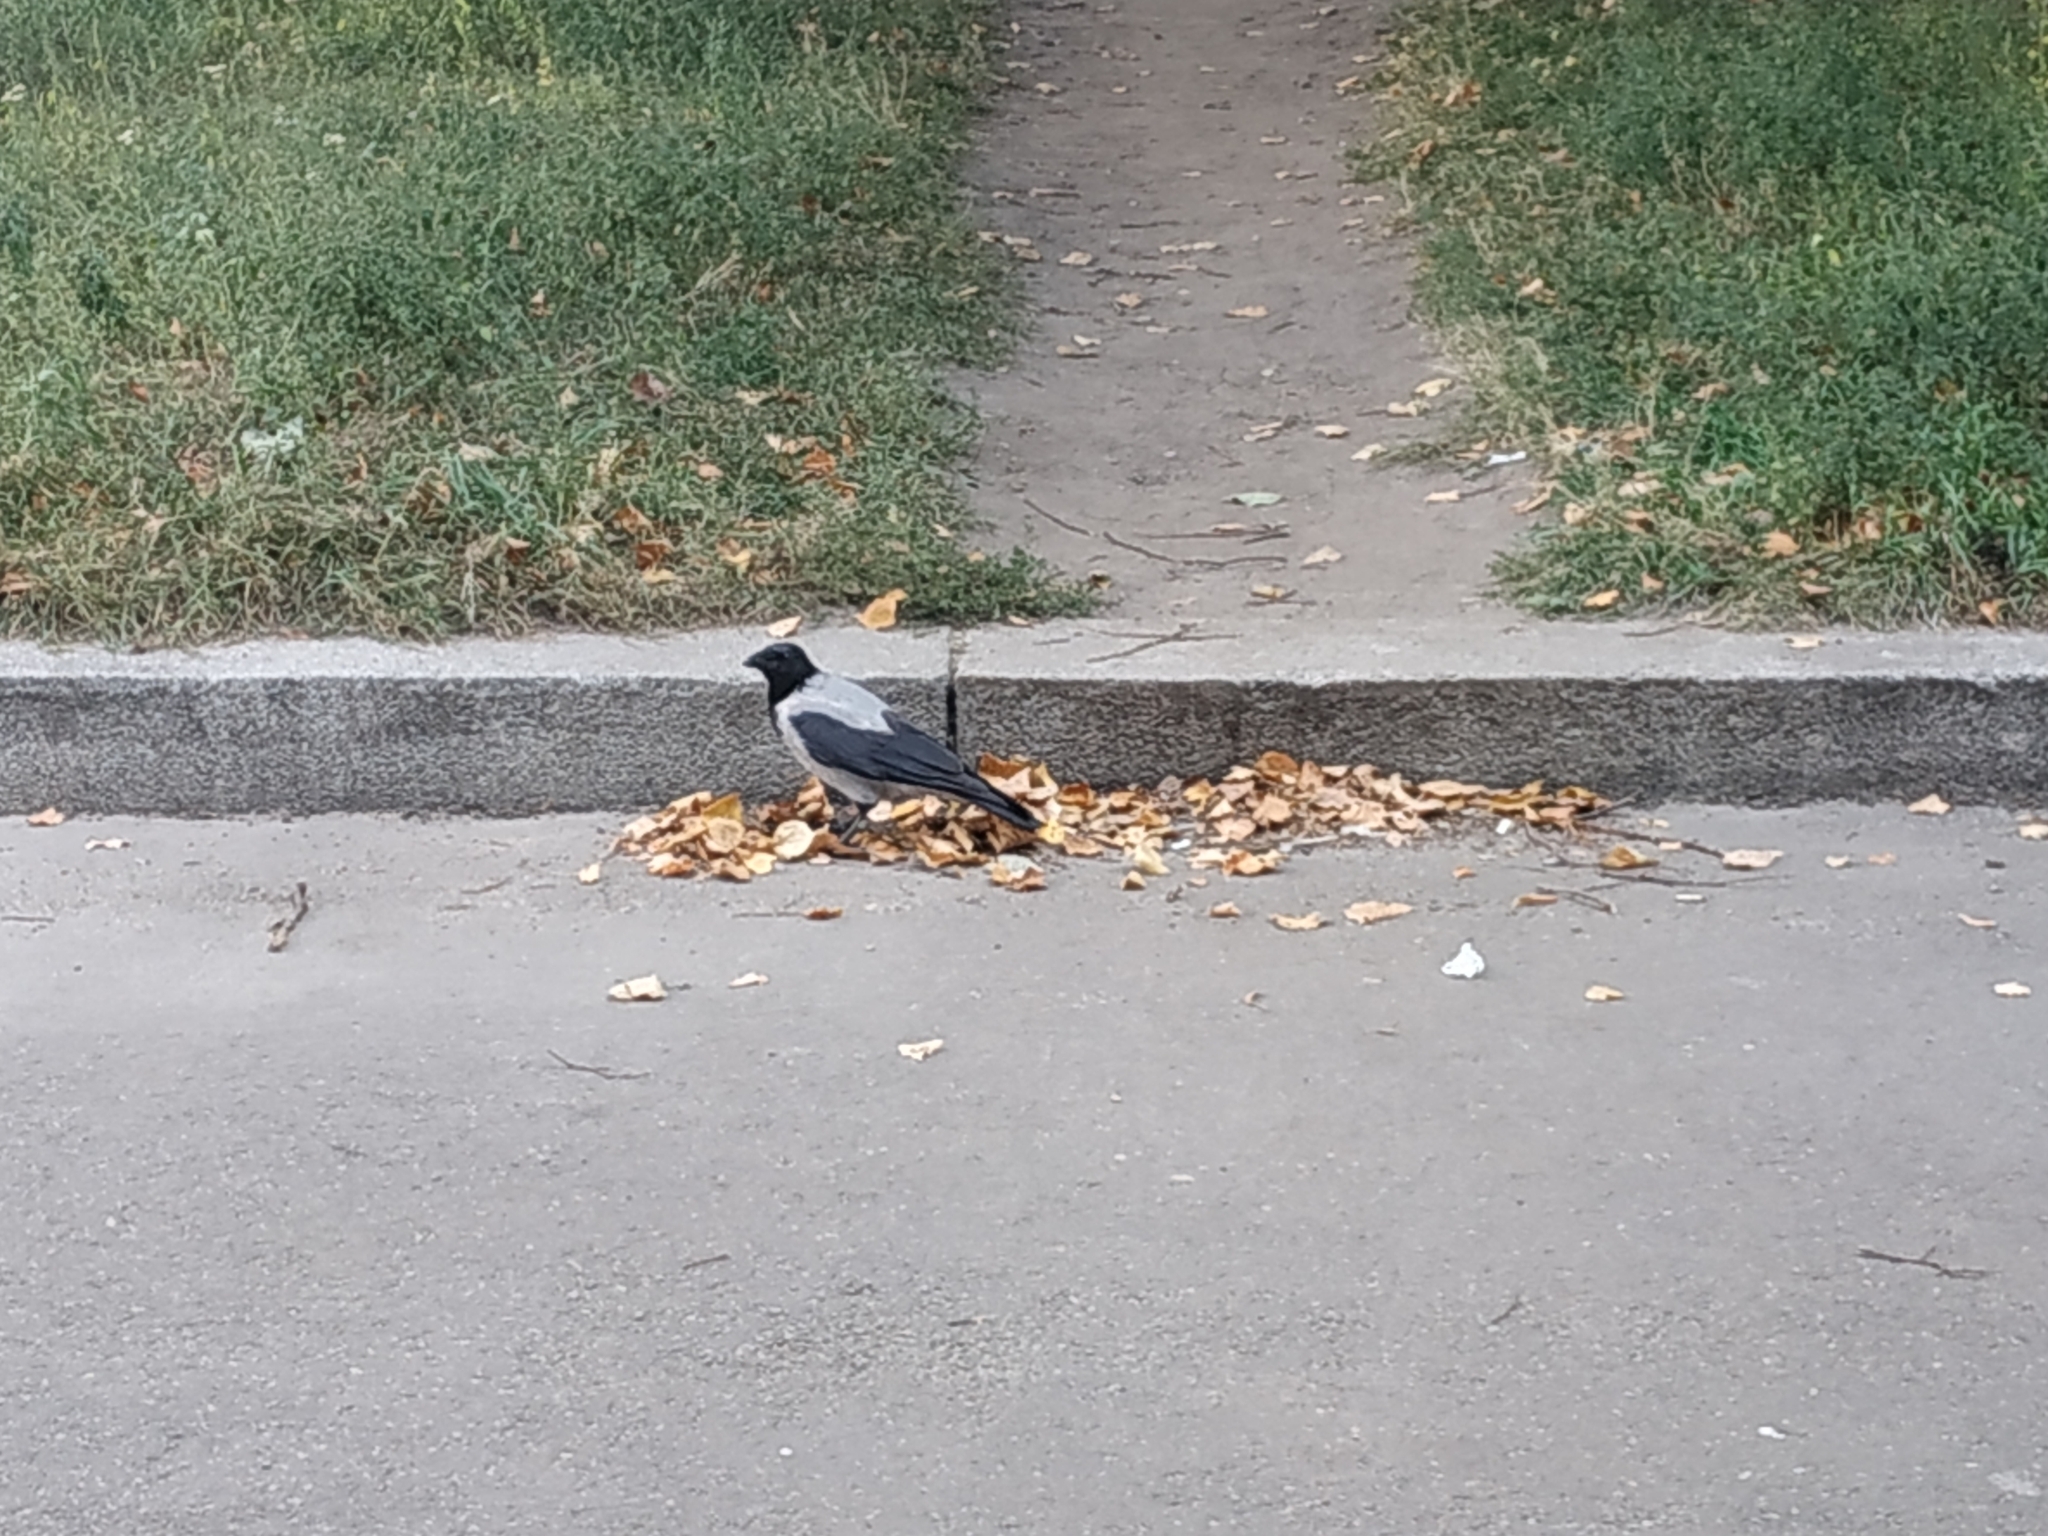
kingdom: Animalia
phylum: Chordata
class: Aves
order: Passeriformes
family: Corvidae
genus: Corvus
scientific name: Corvus cornix
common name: Hooded crow
